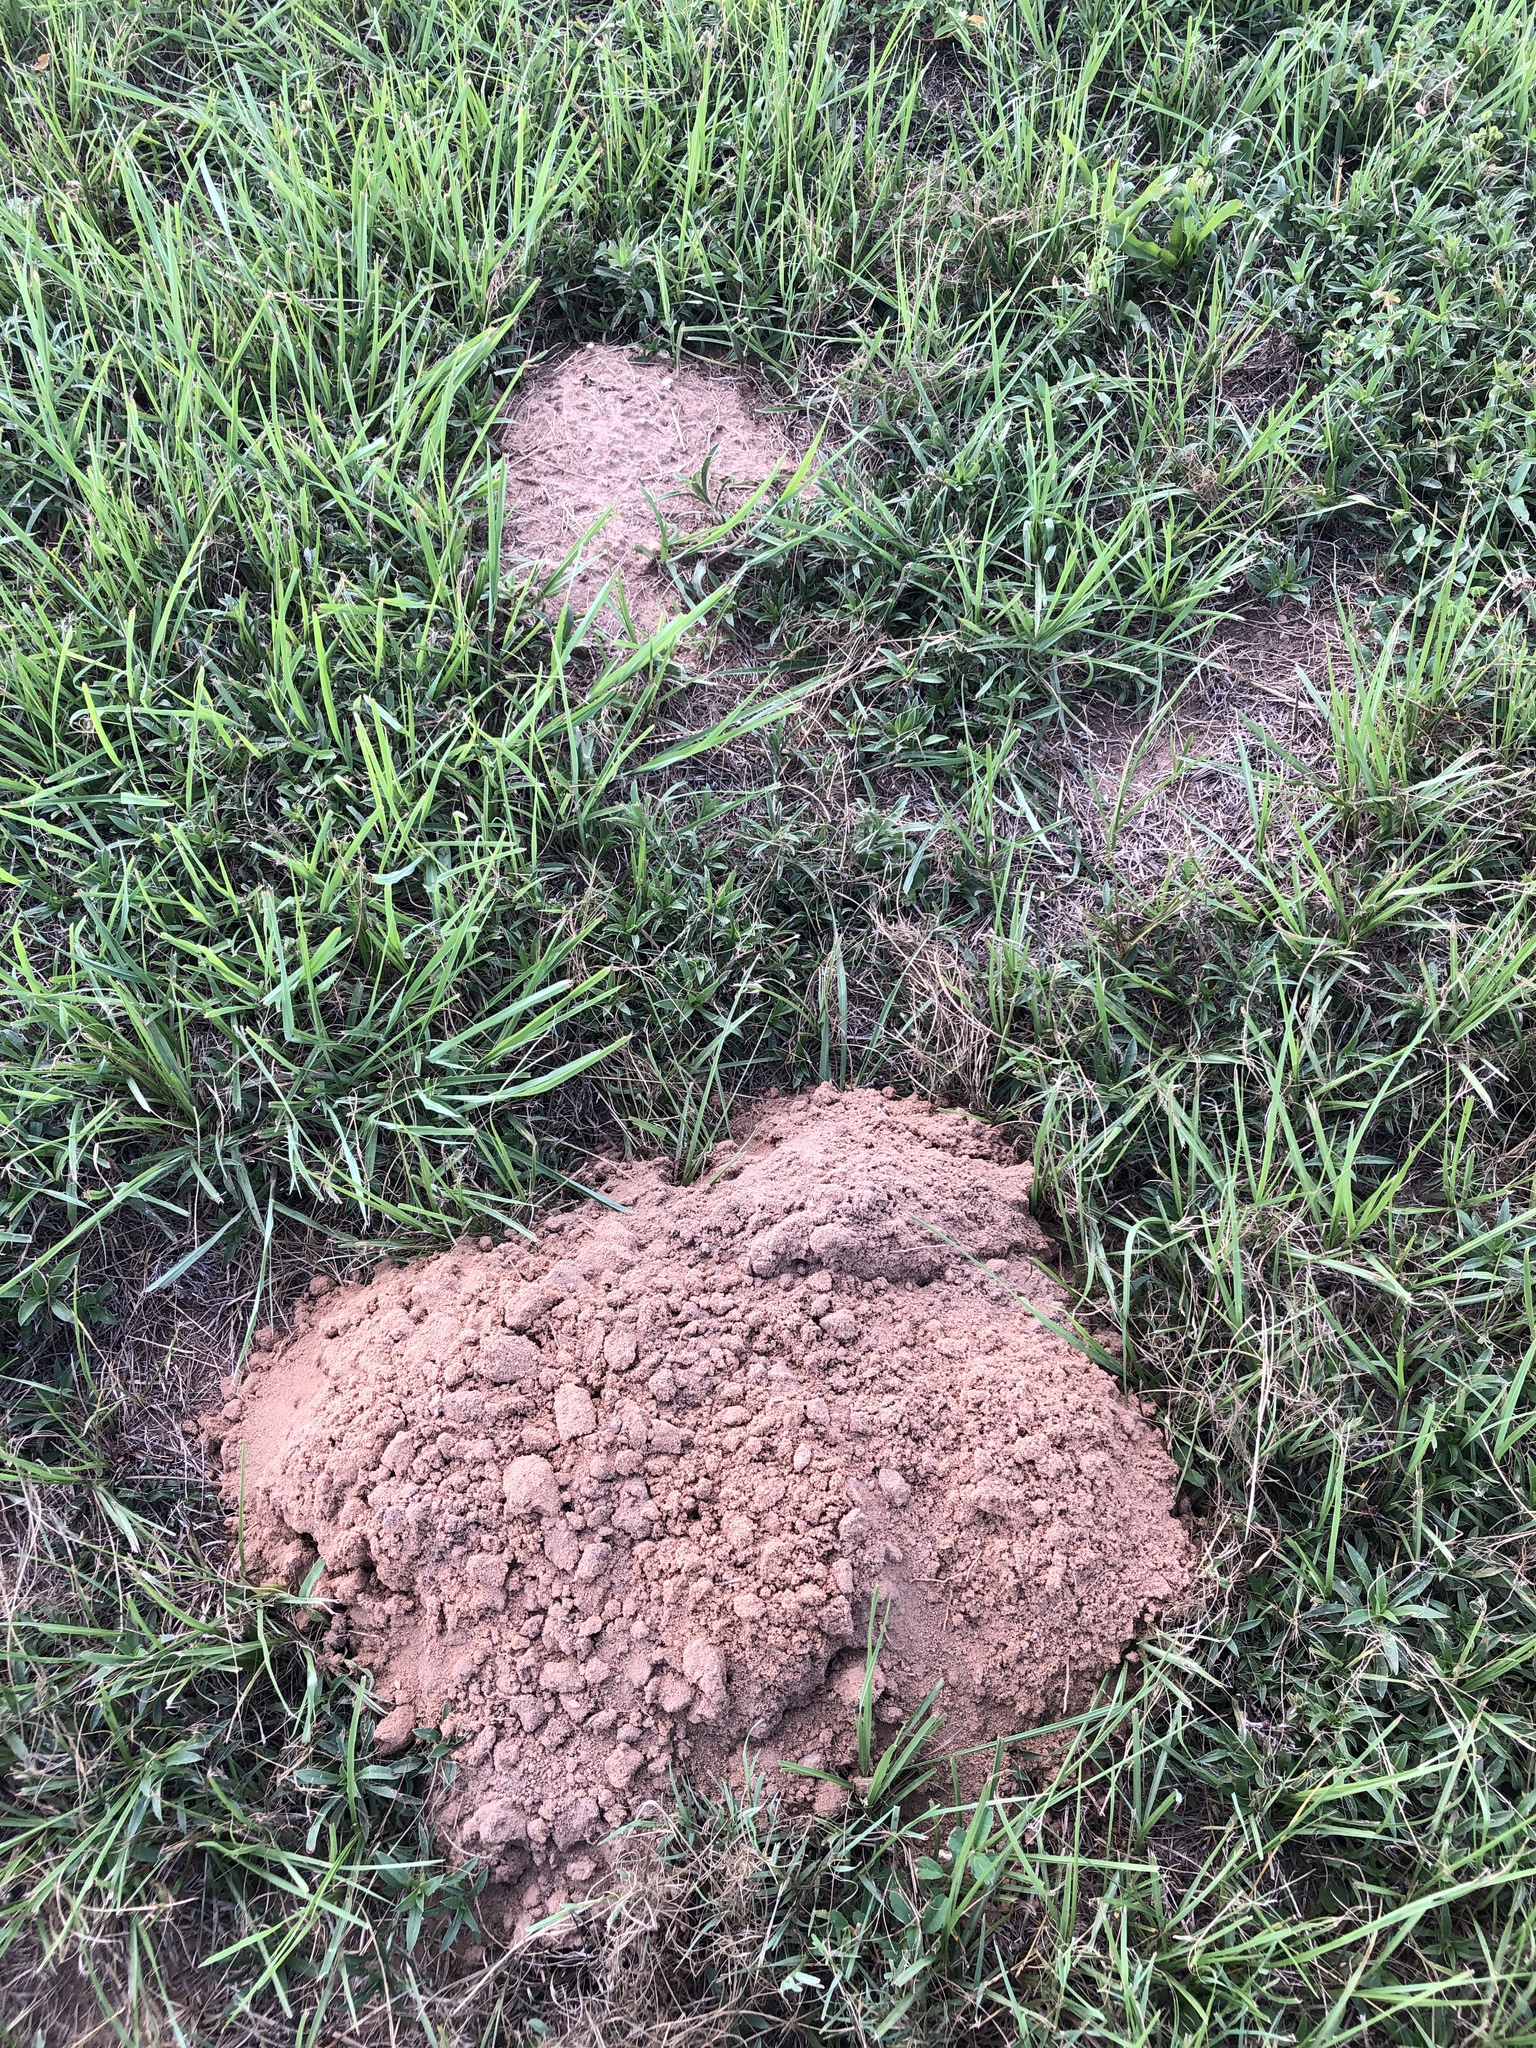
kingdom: Animalia
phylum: Chordata
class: Mammalia
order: Rodentia
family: Geomyidae
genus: Geomys
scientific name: Geomys breviceps
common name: Baird's pocket gopher
